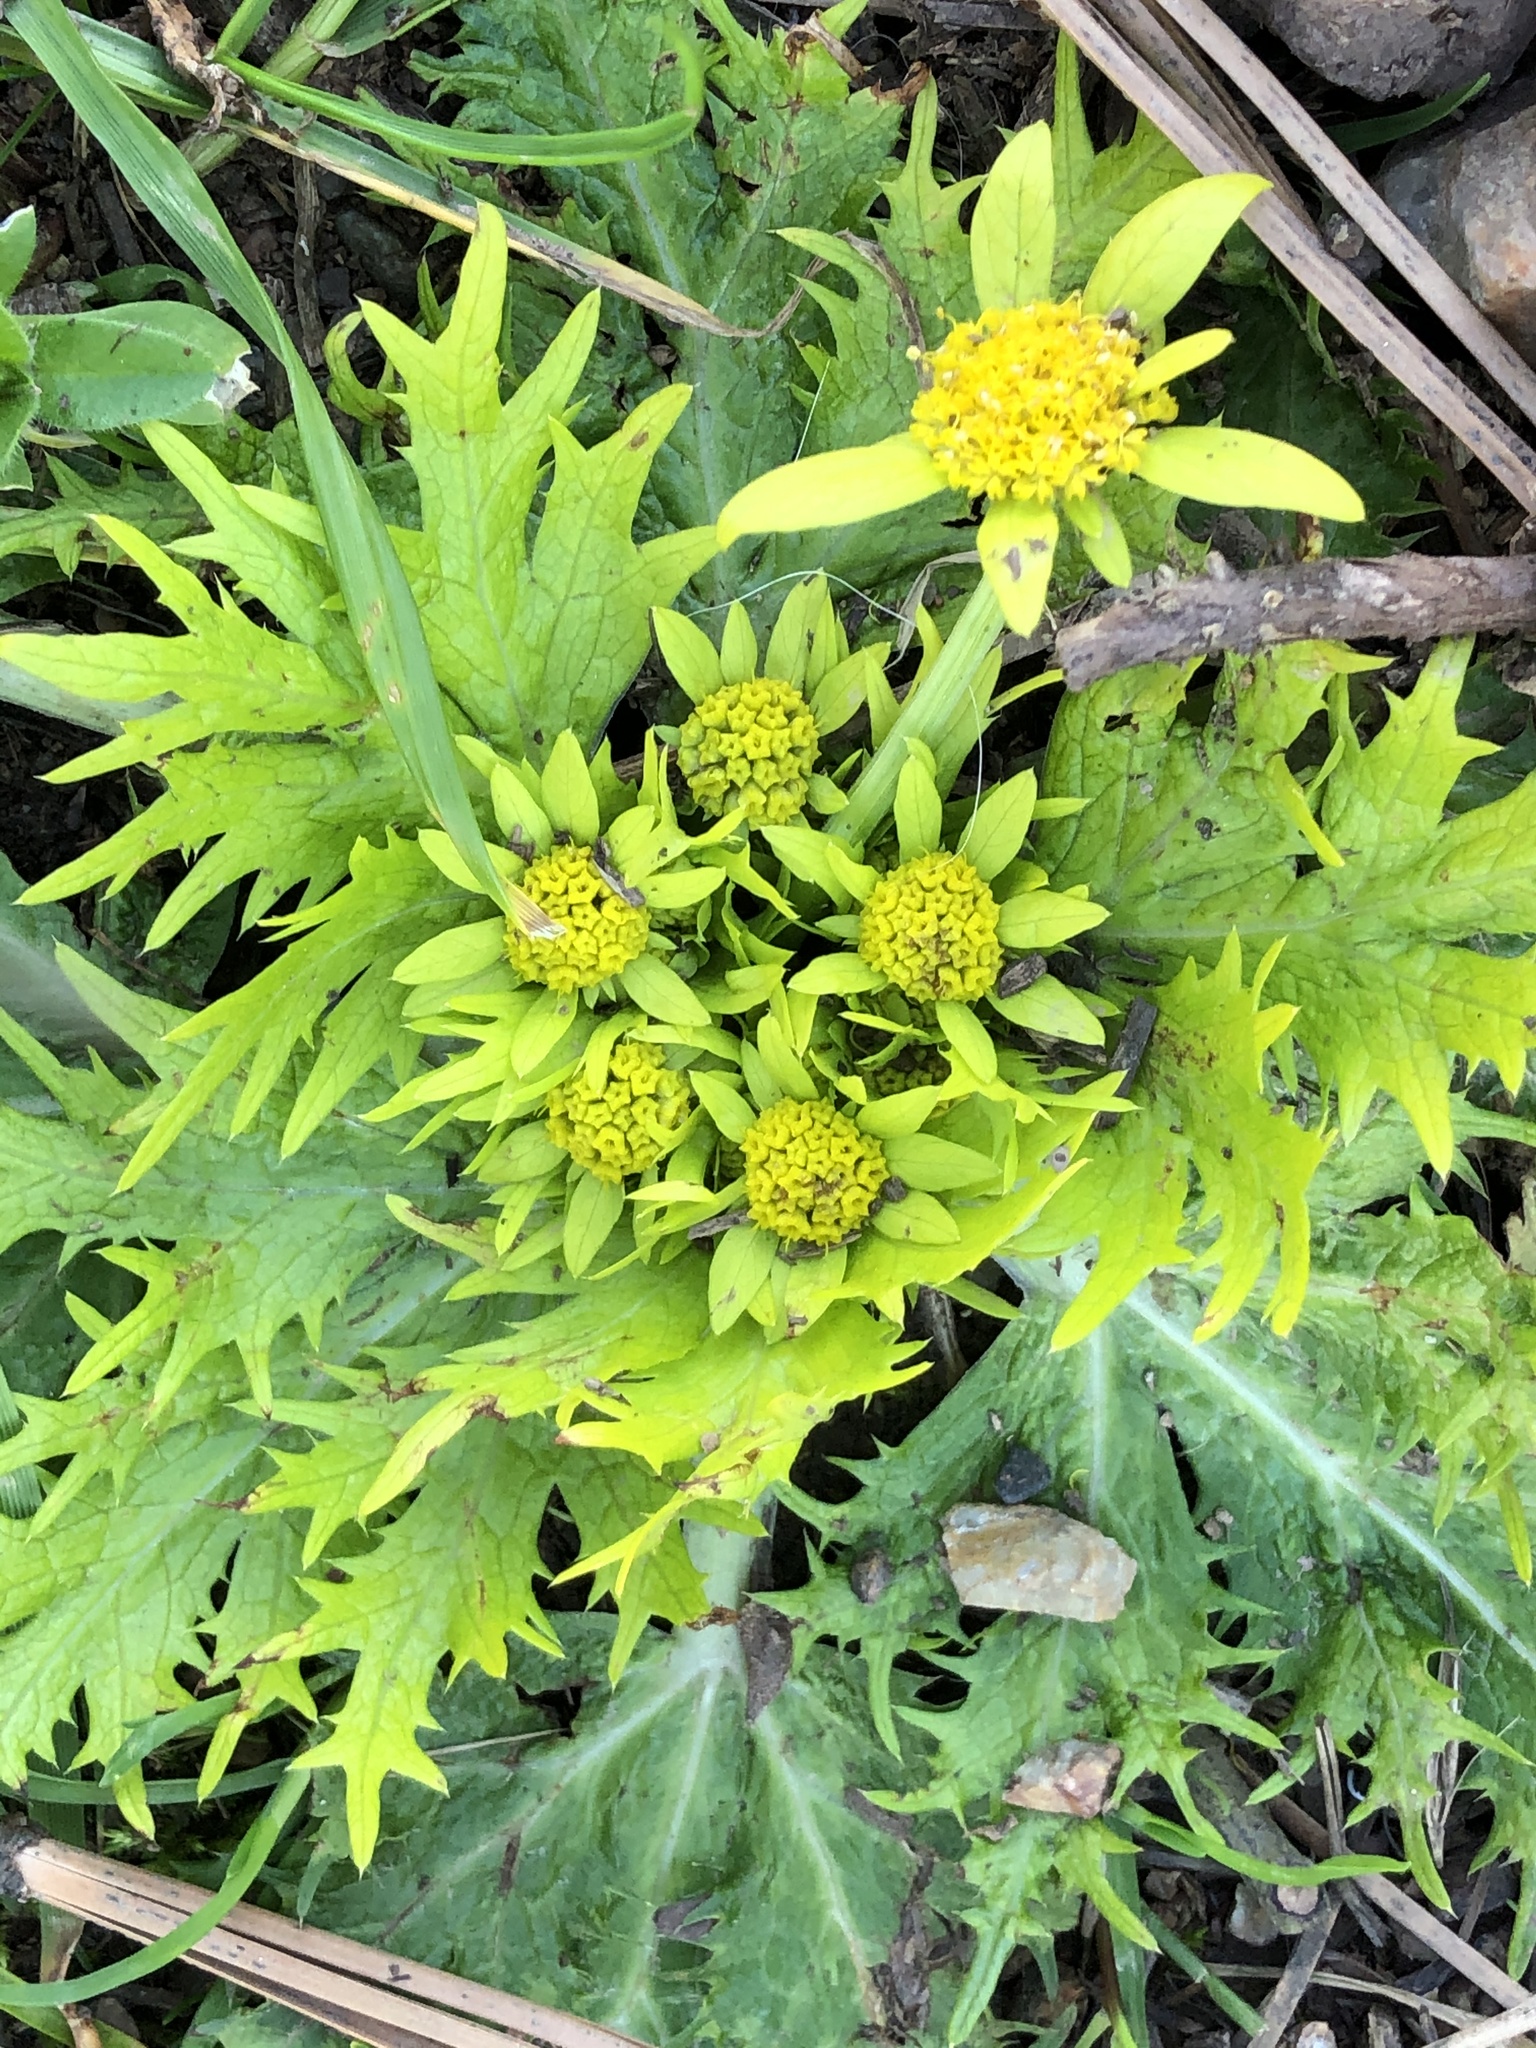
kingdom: Plantae
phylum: Tracheophyta
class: Magnoliopsida
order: Apiales
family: Apiaceae
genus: Sanicula
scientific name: Sanicula arctopoides
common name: Footsteps-of-spring
